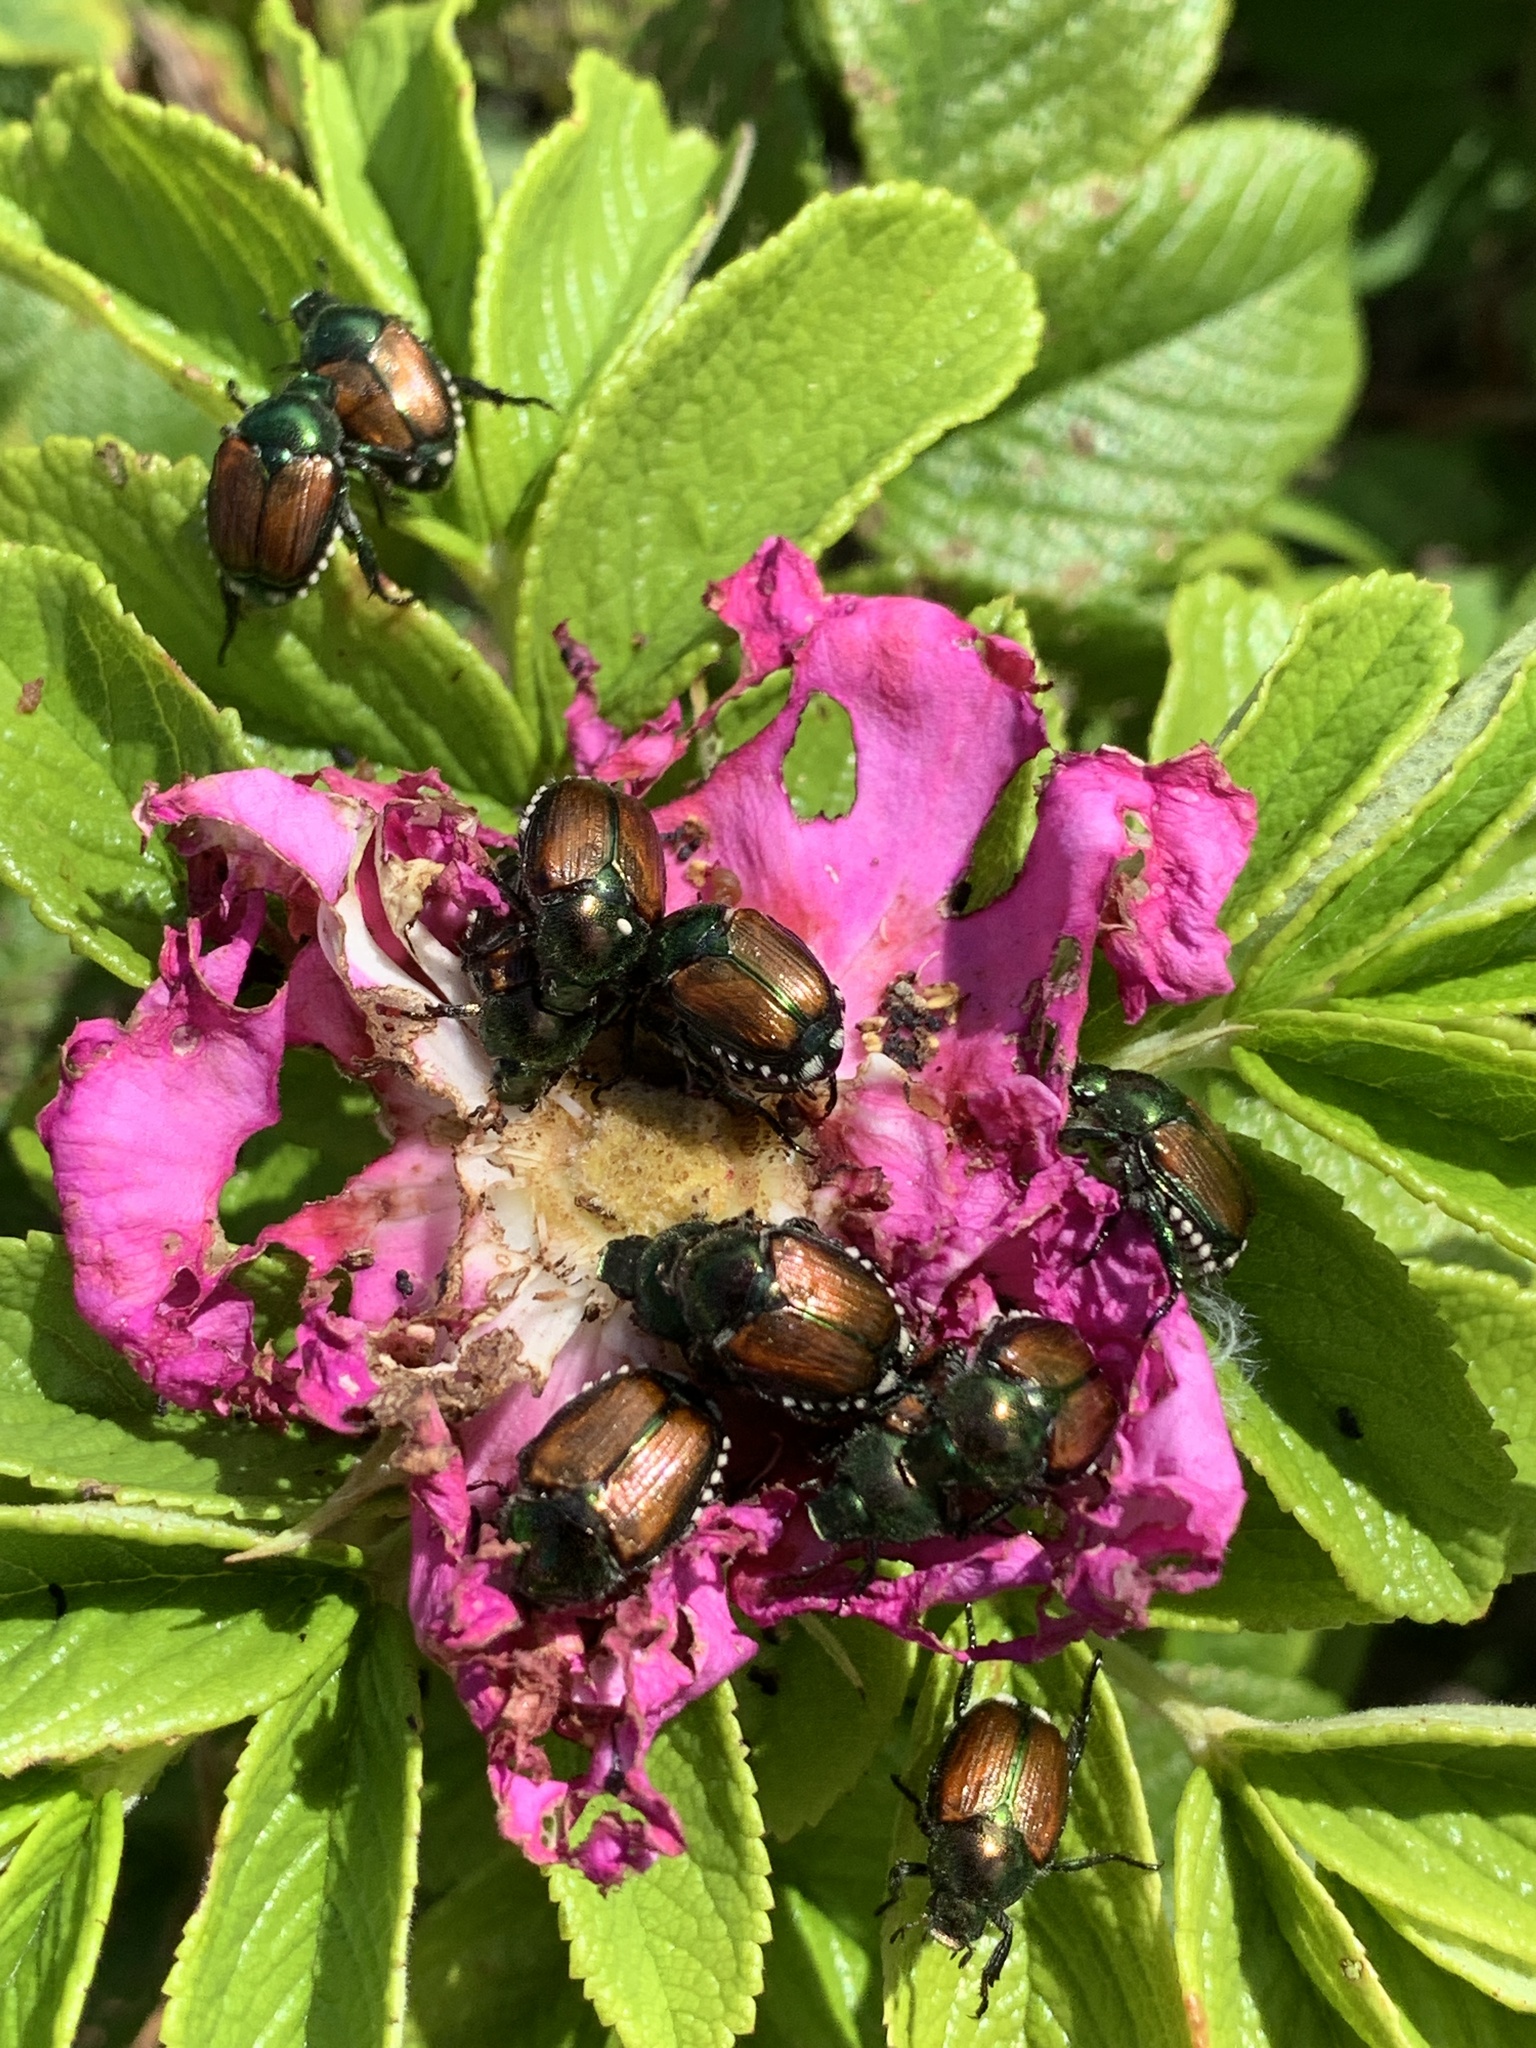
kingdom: Animalia
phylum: Arthropoda
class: Insecta
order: Coleoptera
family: Scarabaeidae
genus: Popillia
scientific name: Popillia japonica
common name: Japanese beetle
